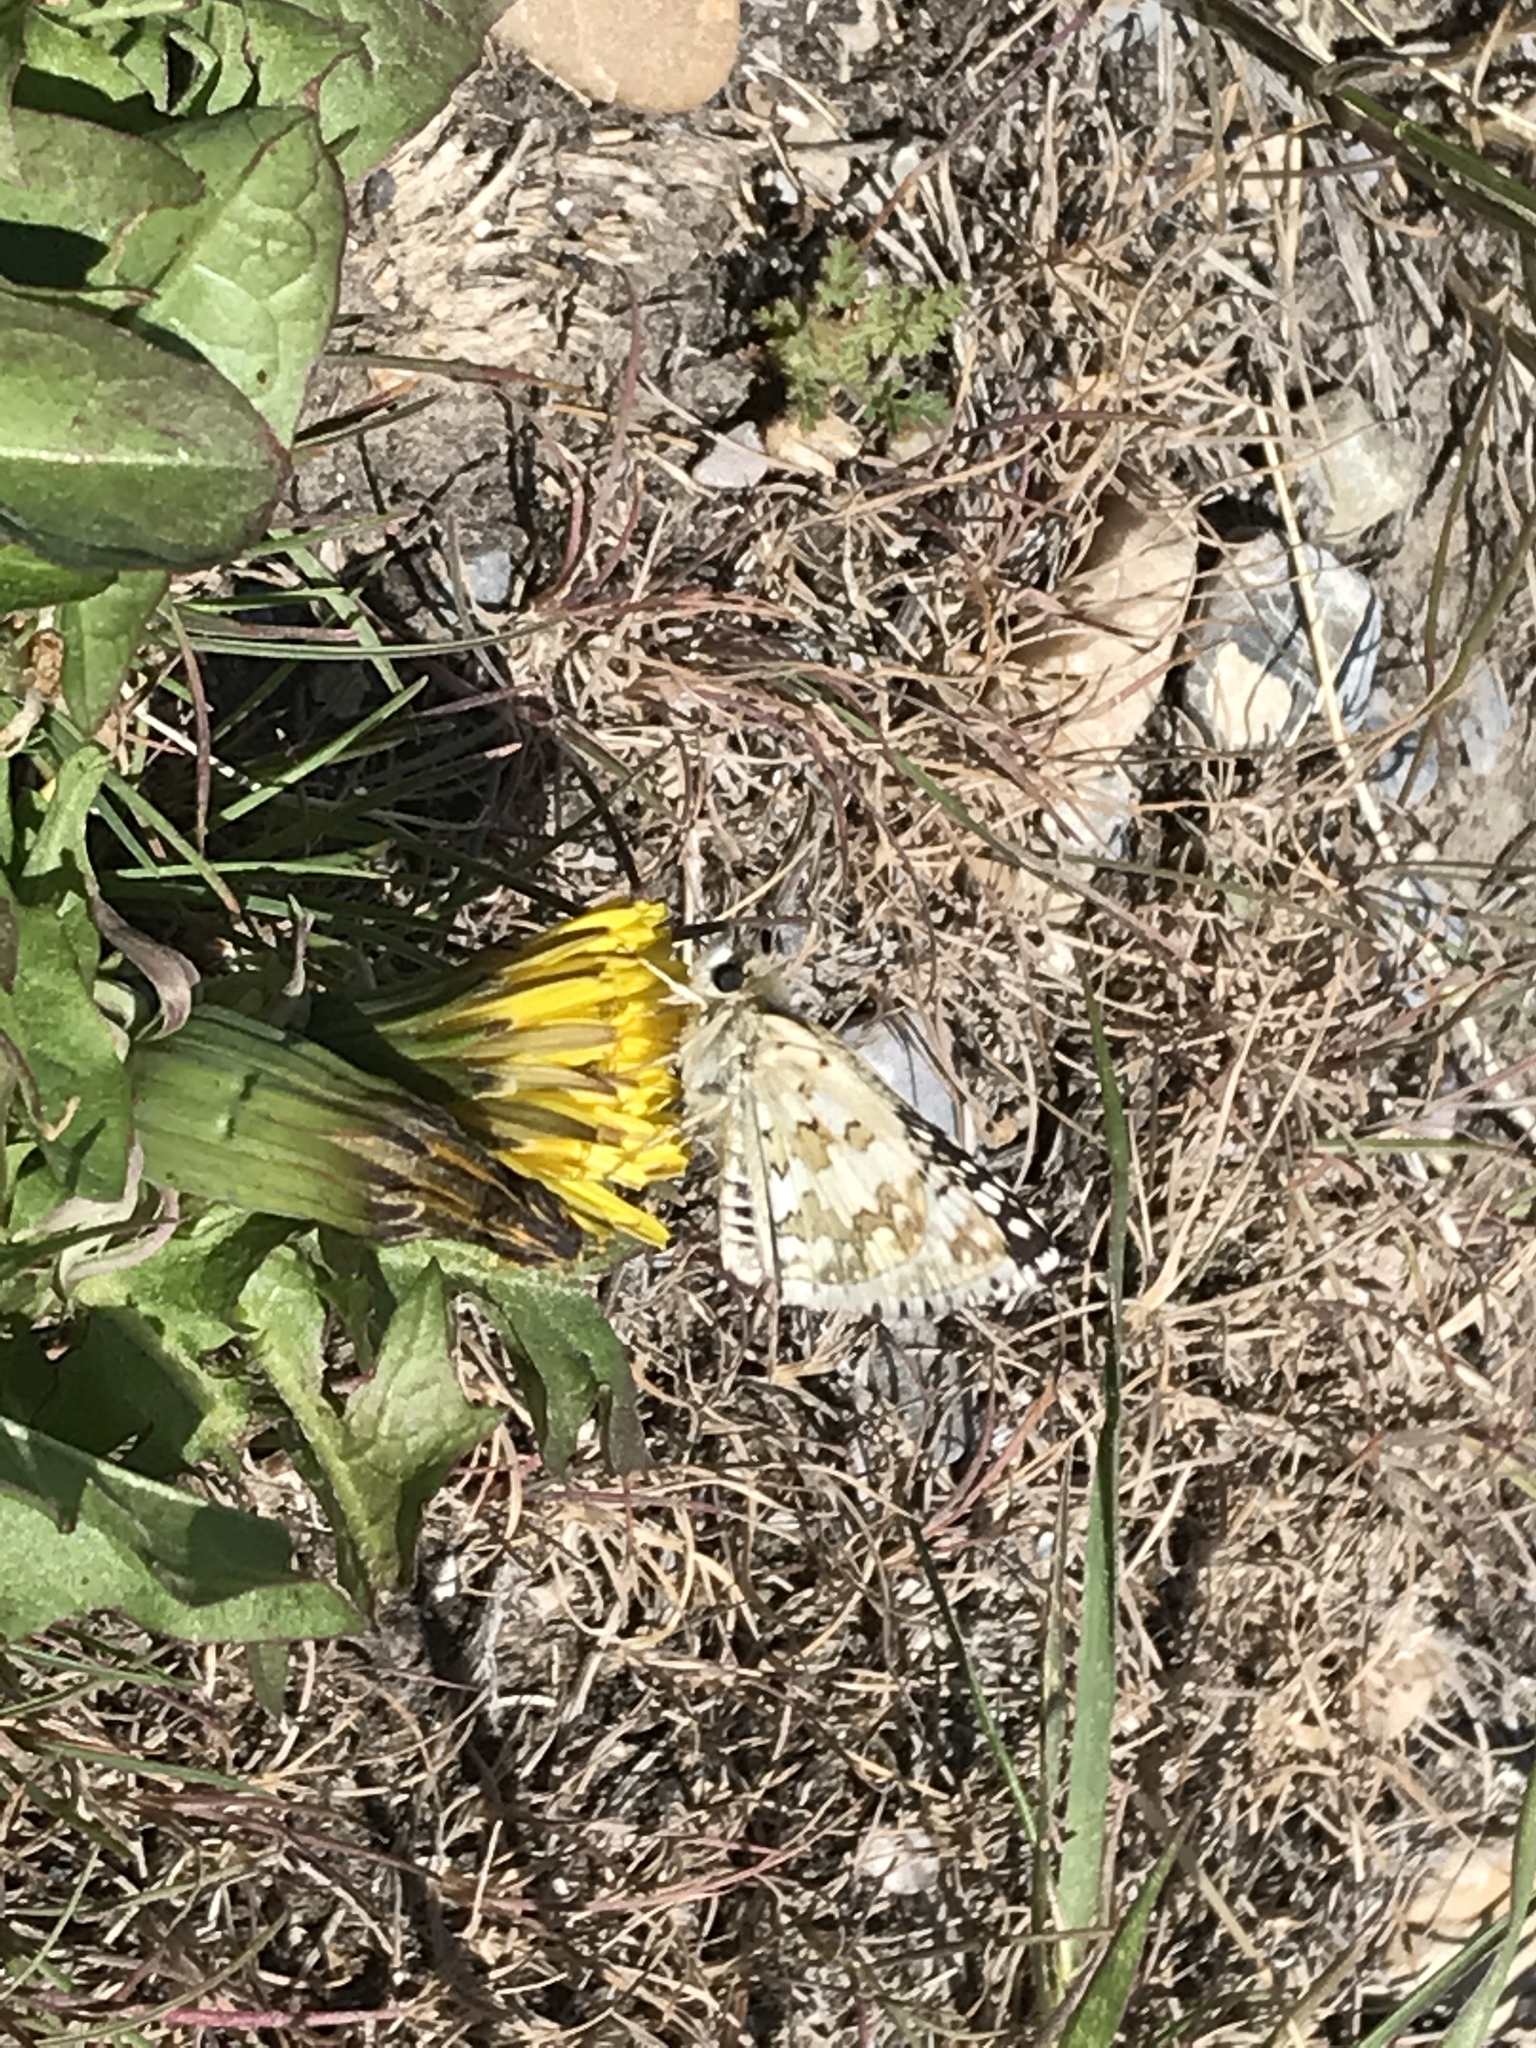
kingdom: Animalia
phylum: Arthropoda
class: Insecta
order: Lepidoptera
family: Hesperiidae
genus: Burnsius
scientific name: Burnsius communis
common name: Common checkered-skipper
